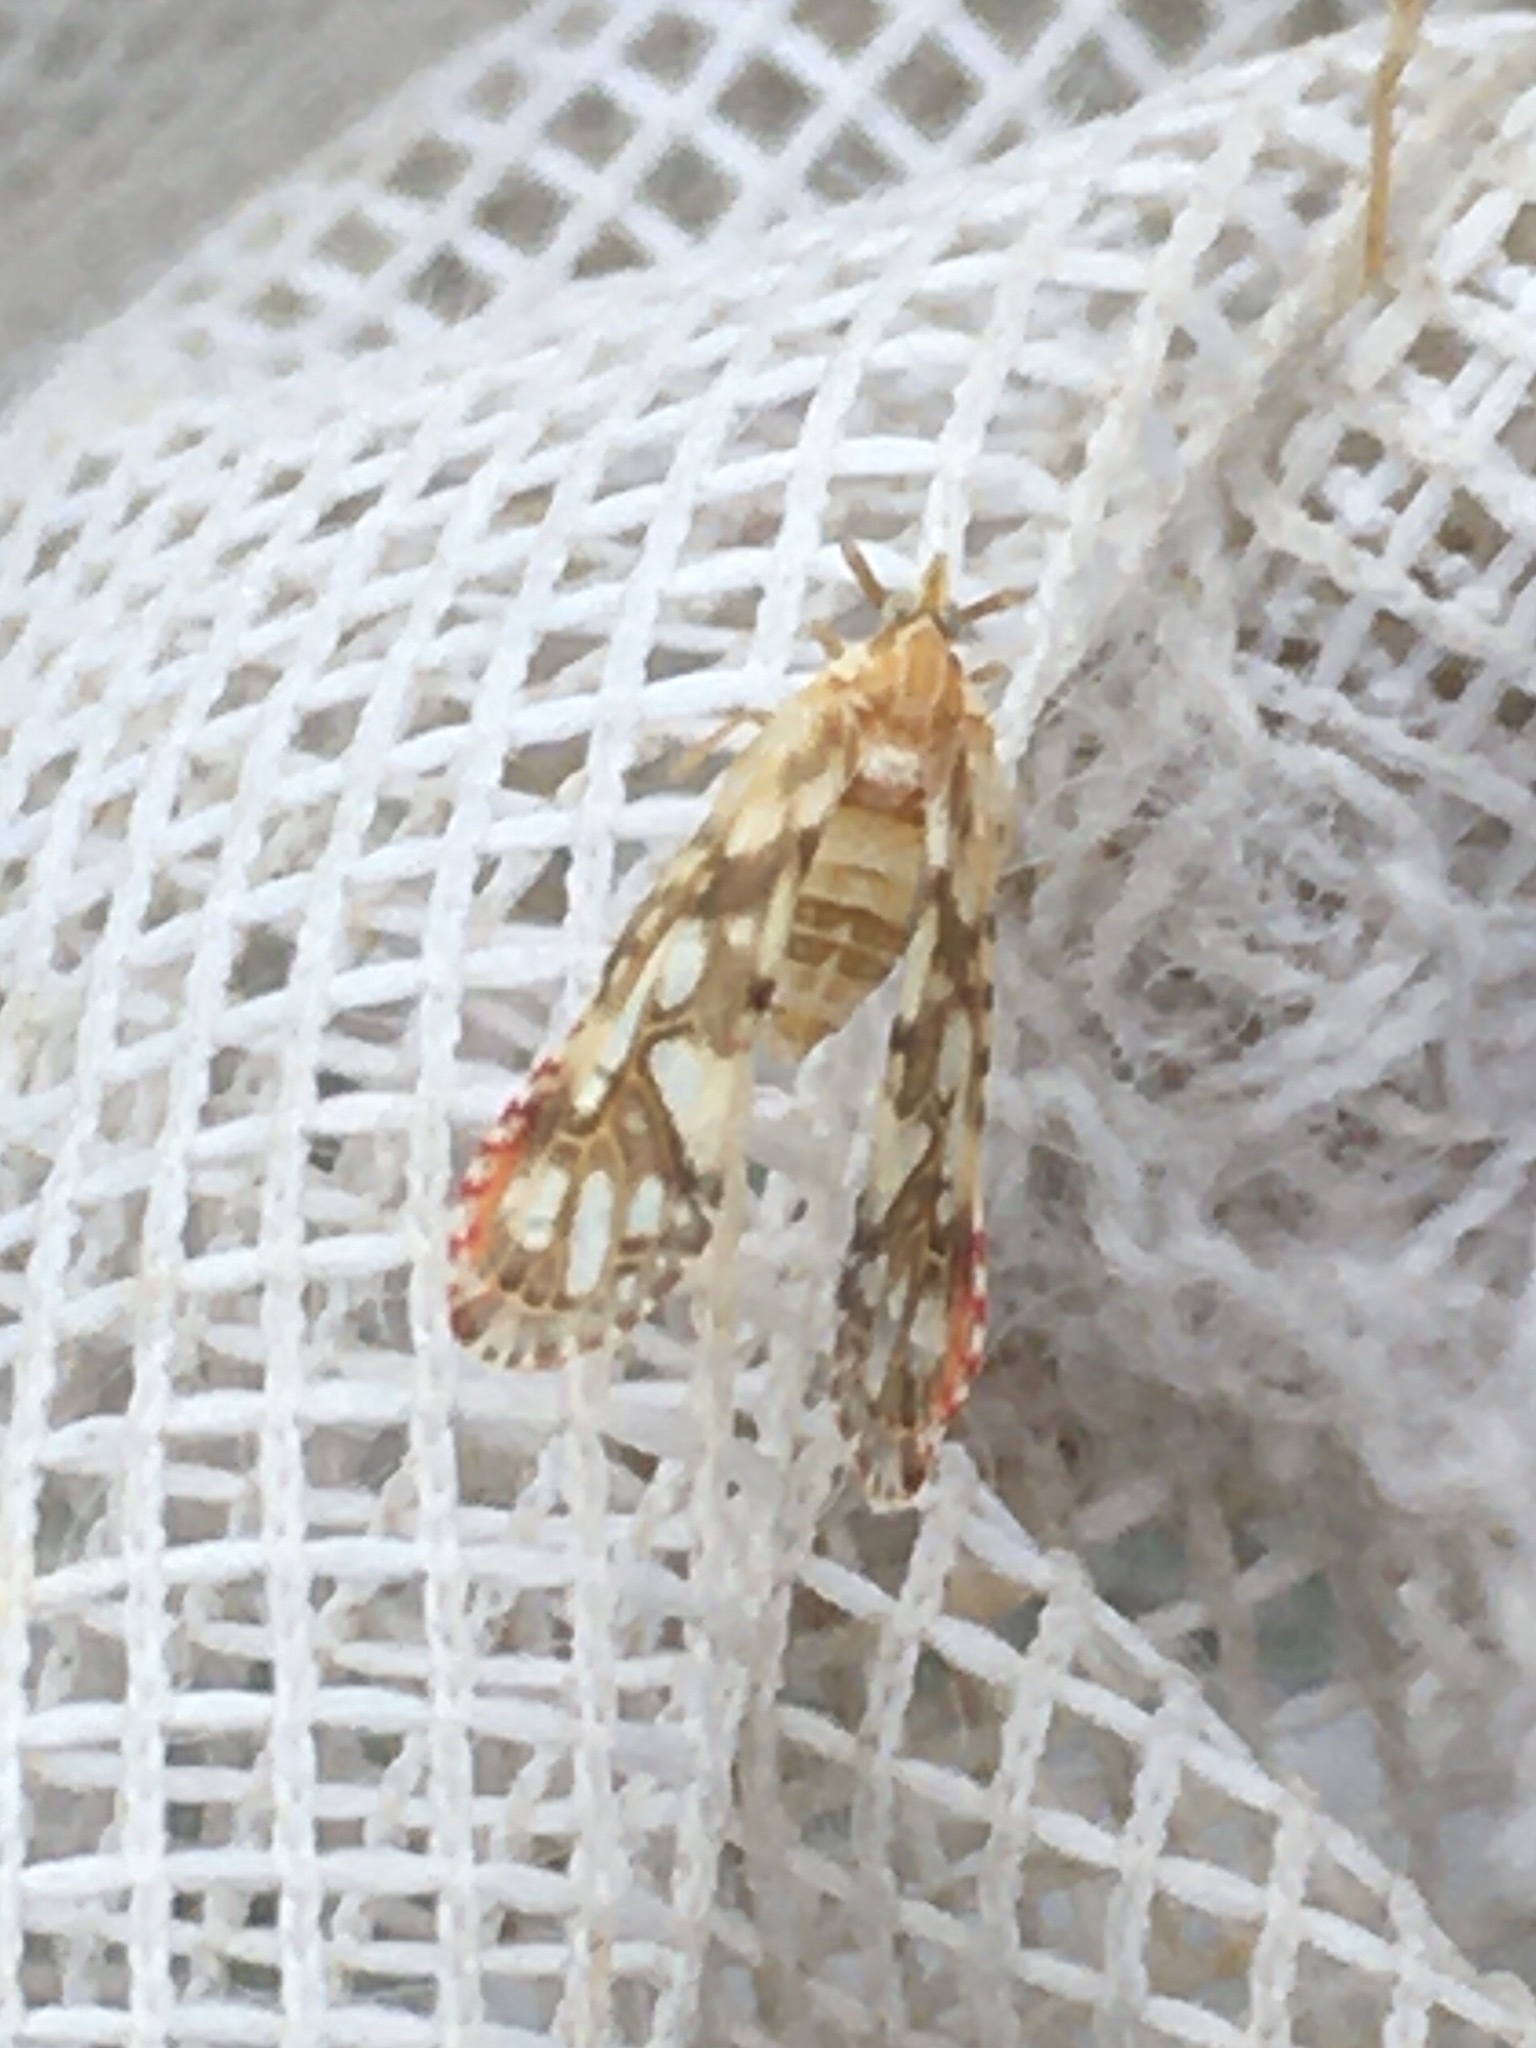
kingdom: Animalia
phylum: Arthropoda
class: Insecta
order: Hemiptera
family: Derbidae
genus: Anotia
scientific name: Anotia kirkaldyi
